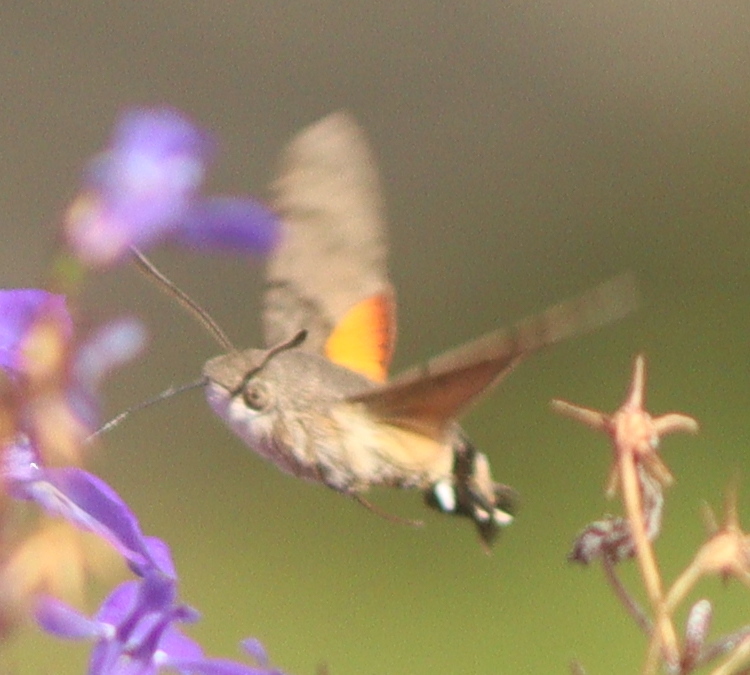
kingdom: Animalia
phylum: Arthropoda
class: Insecta
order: Lepidoptera
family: Sphingidae
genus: Macroglossum
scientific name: Macroglossum stellatarum
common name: Humming-bird hawk-moth
